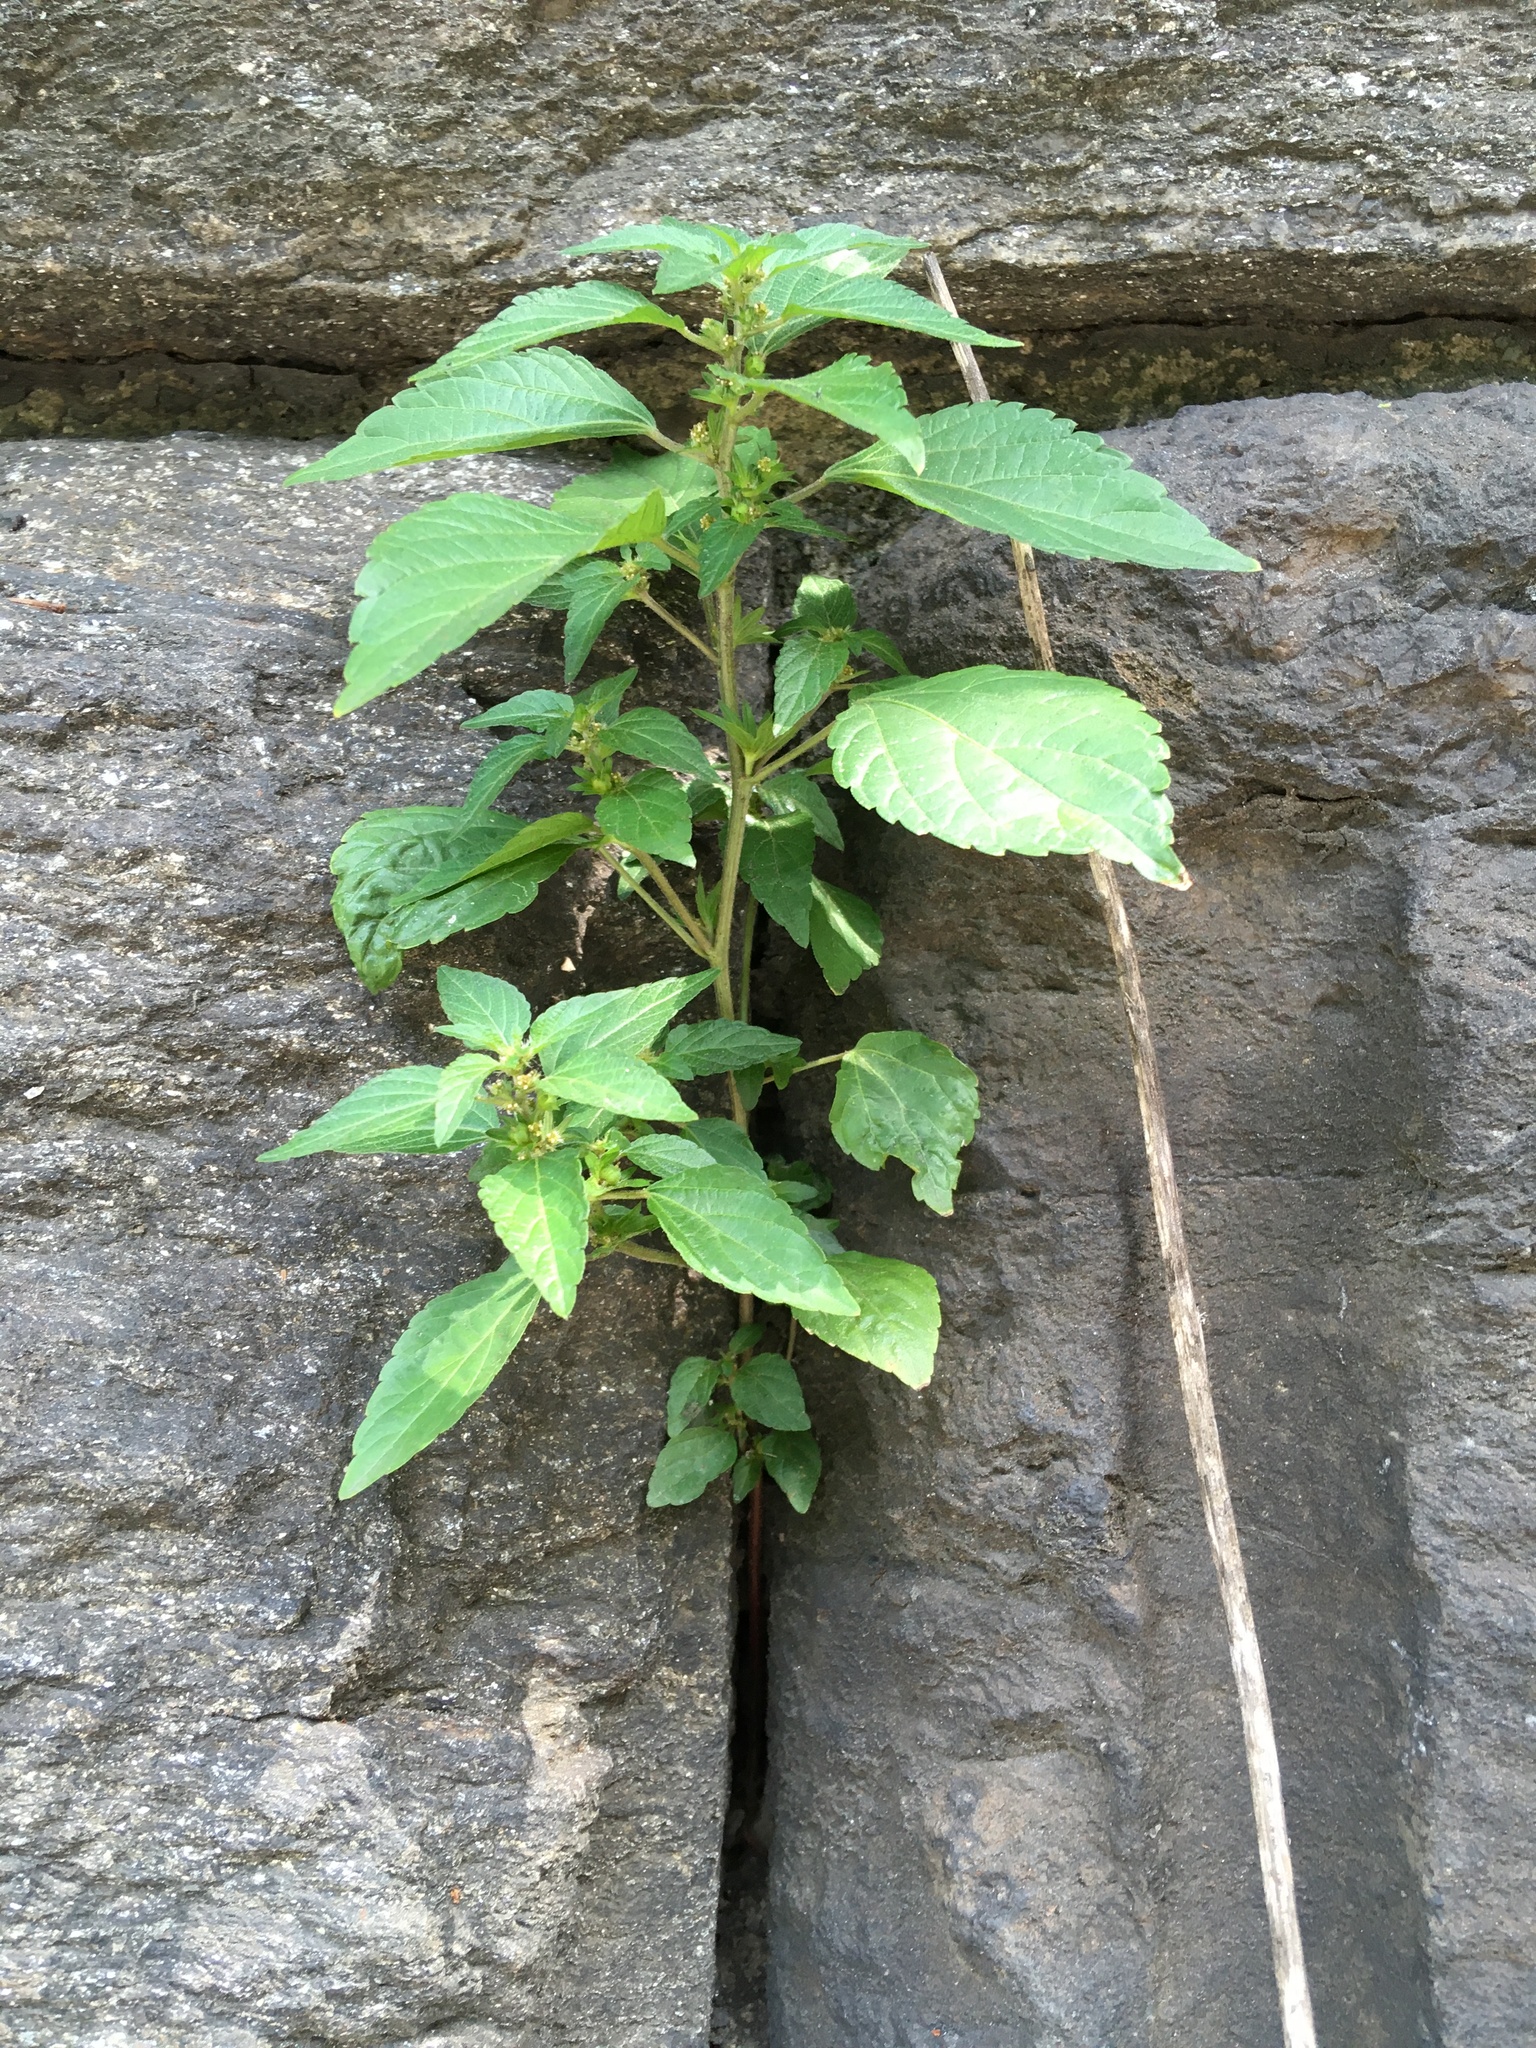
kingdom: Plantae
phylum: Tracheophyta
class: Magnoliopsida
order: Malpighiales
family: Euphorbiaceae
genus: Acalypha
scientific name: Acalypha rhomboidea
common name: Rhombic copperleaf
